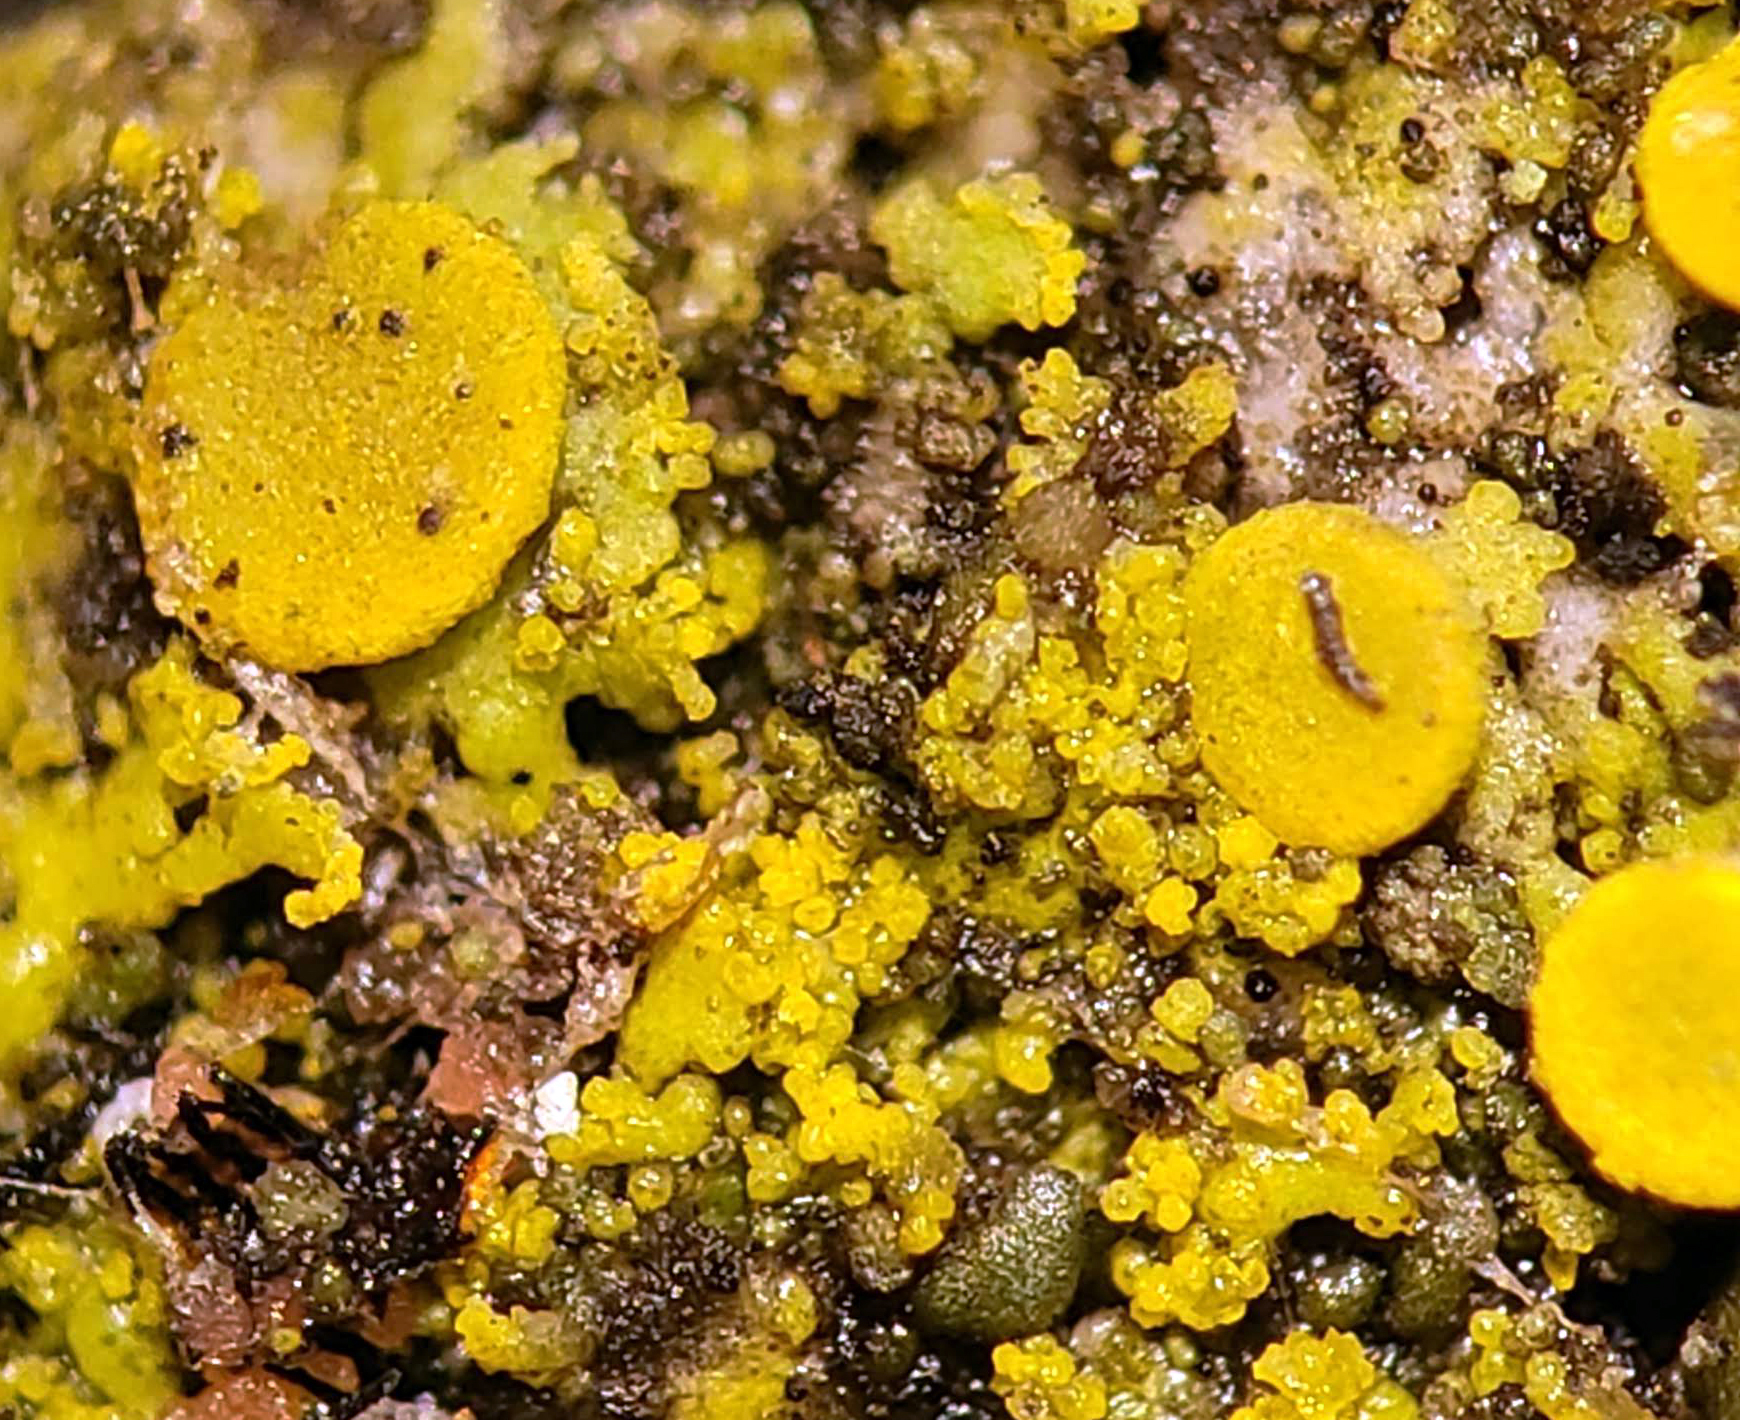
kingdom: Fungi
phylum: Ascomycota
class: Candelariomycetes
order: Candelariales
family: Candelariaceae
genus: Candelaria
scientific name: Candelaria concolor
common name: Candleflame lichen
